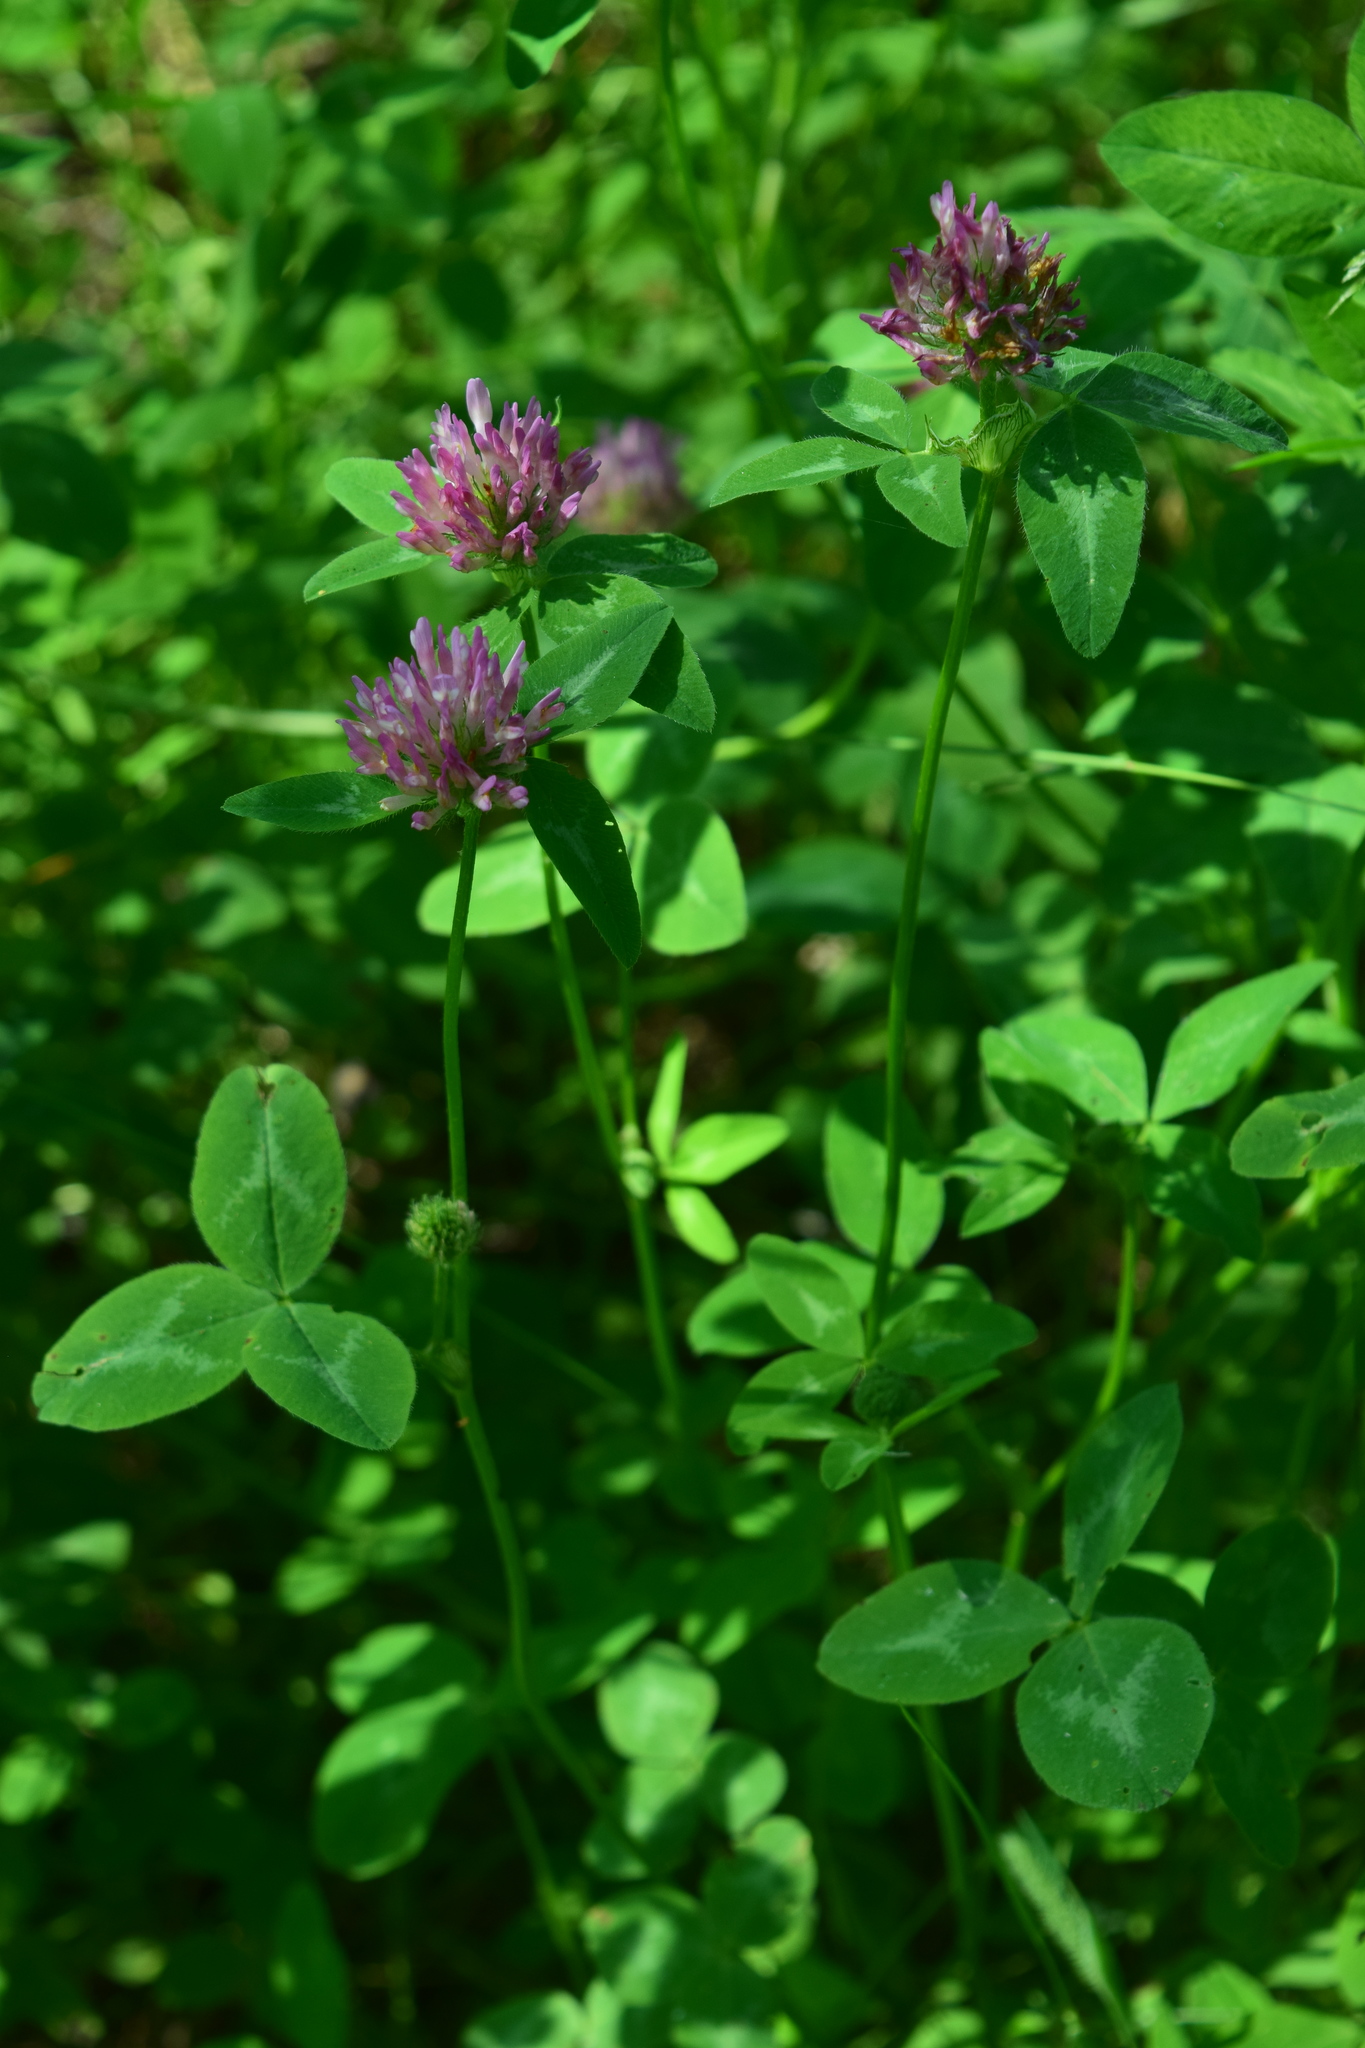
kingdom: Plantae
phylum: Tracheophyta
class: Magnoliopsida
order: Fabales
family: Fabaceae
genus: Trifolium
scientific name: Trifolium pratense
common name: Red clover
